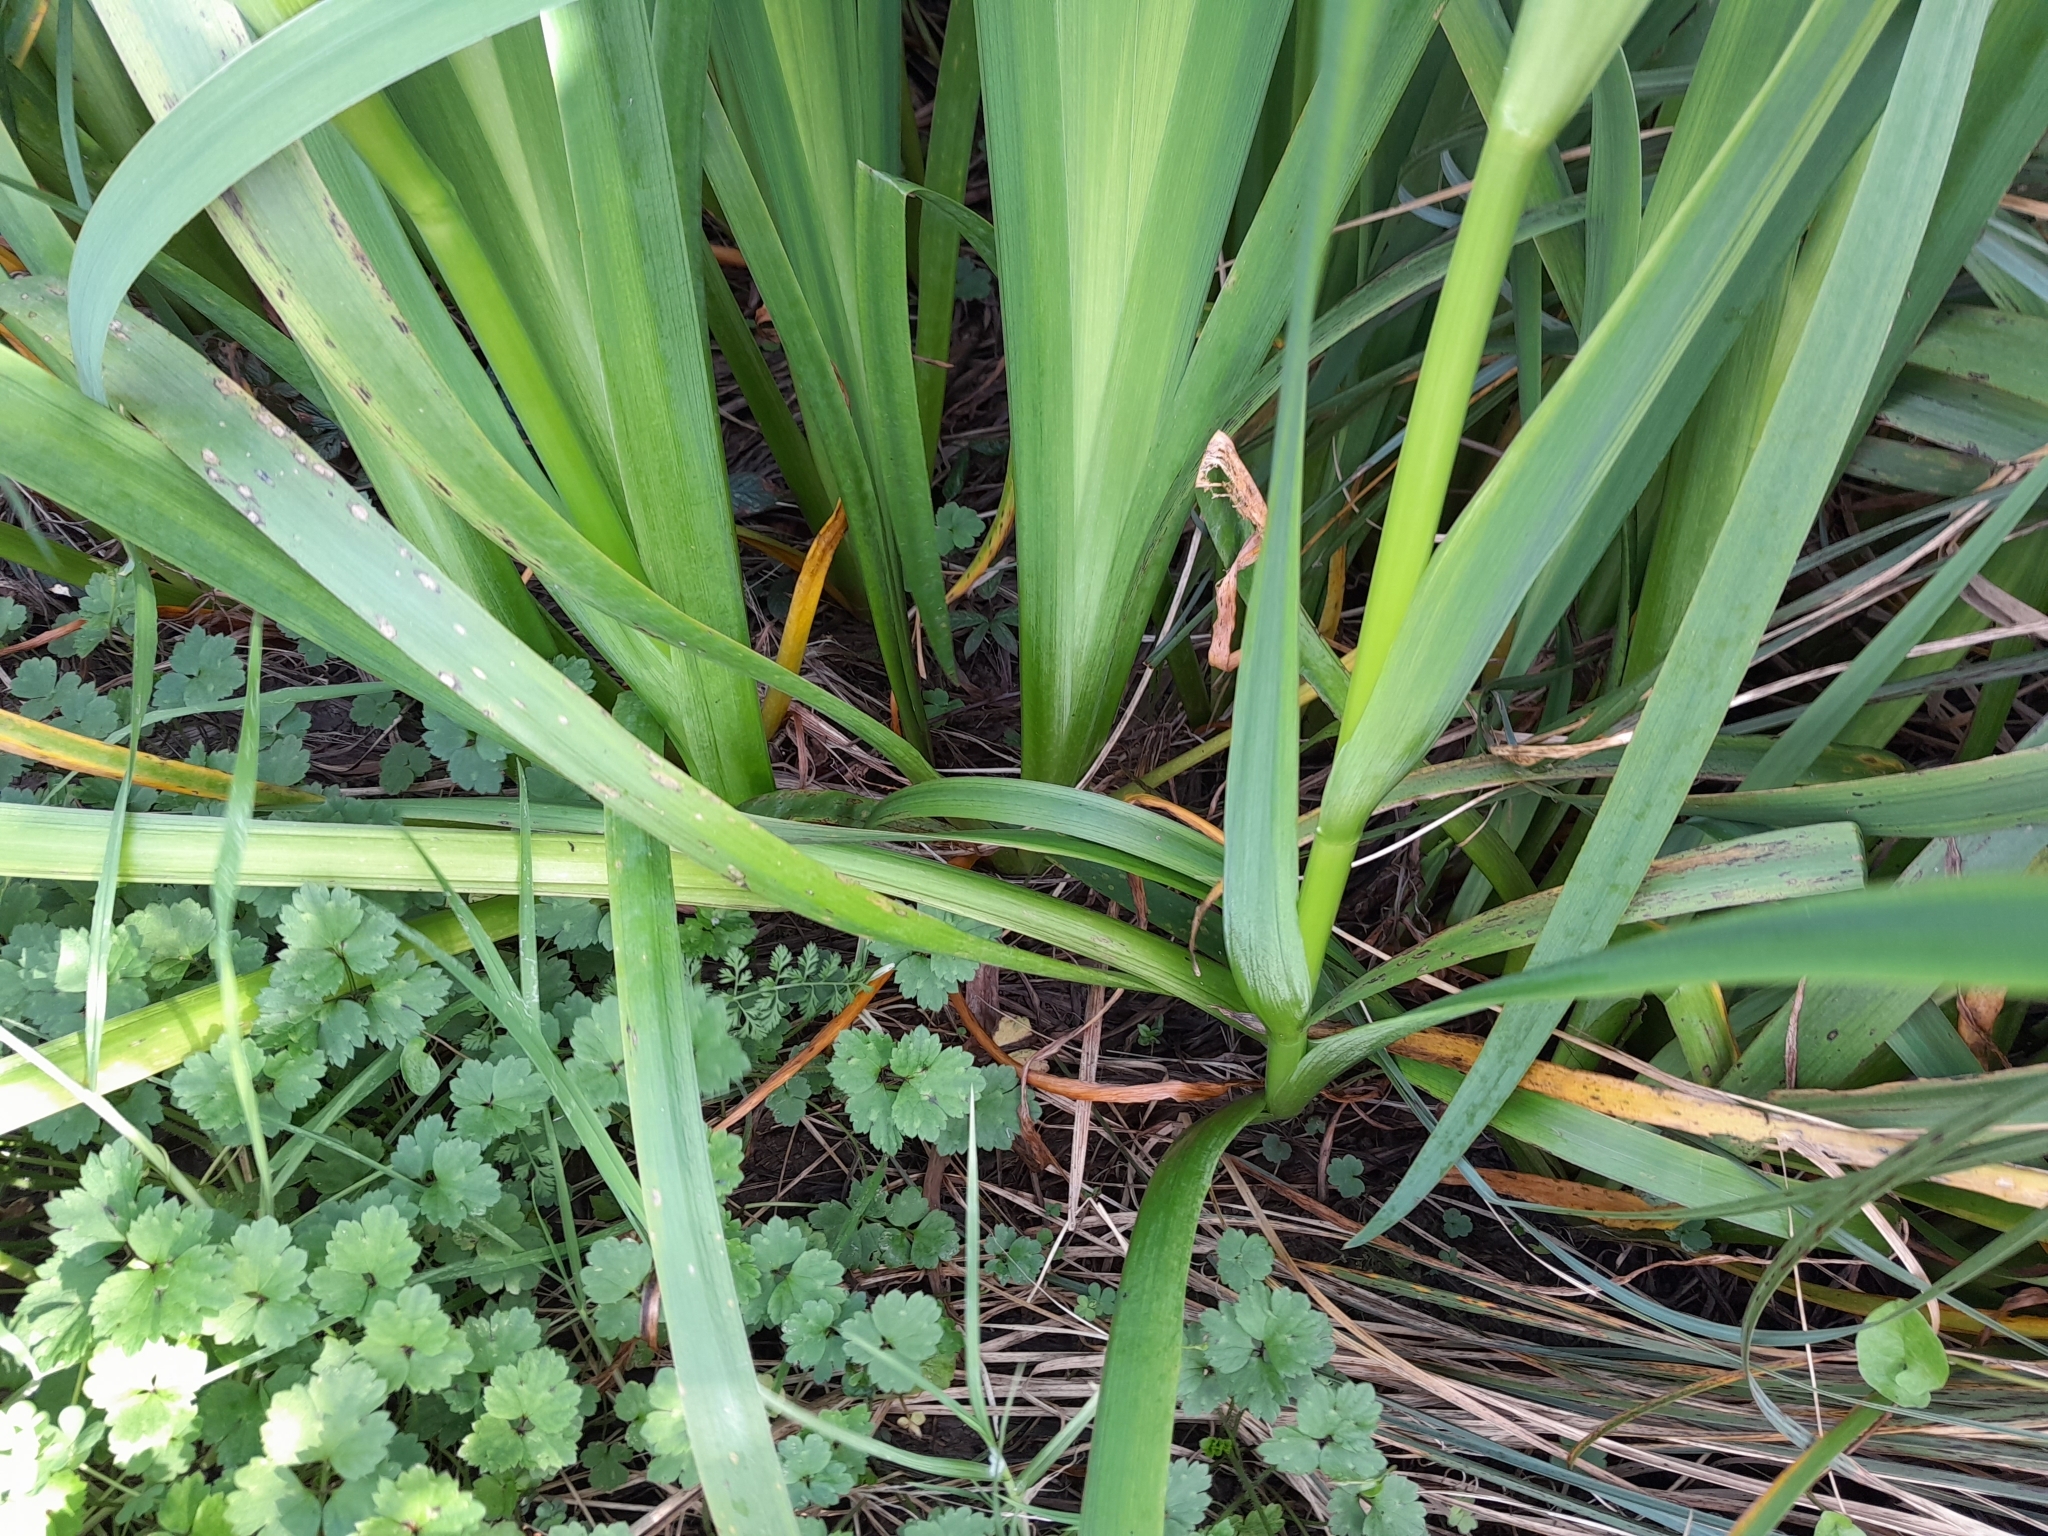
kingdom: Plantae
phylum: Tracheophyta
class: Liliopsida
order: Asparagales
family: Iridaceae
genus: Iris
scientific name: Iris pseudacorus
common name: Yellow flag
